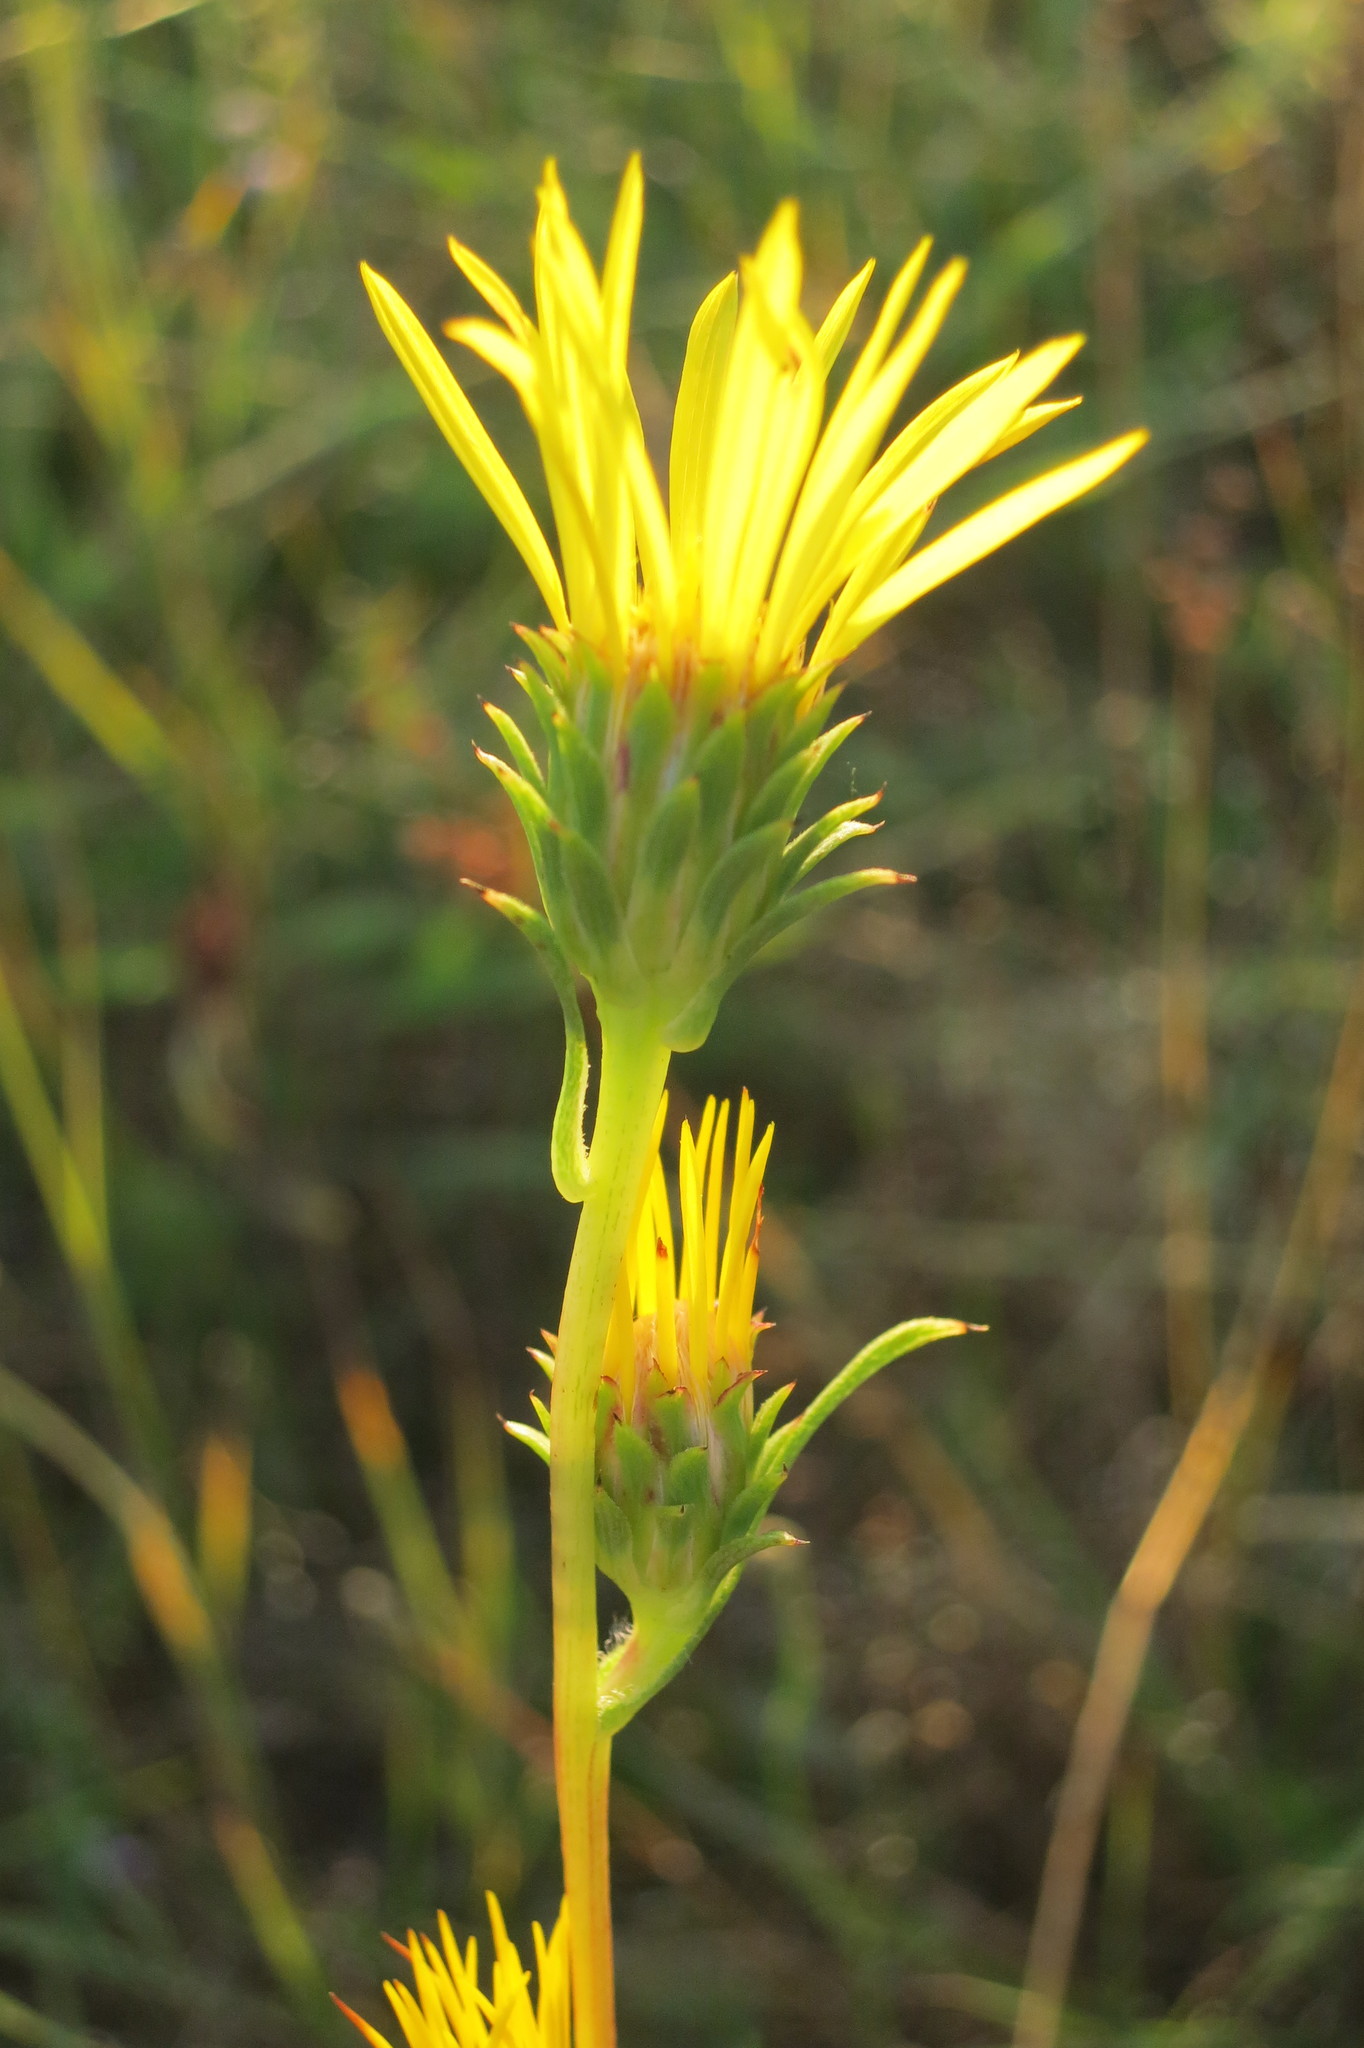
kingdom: Plantae
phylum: Tracheophyta
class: Magnoliopsida
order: Asterales
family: Asteraceae
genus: Pyrrocoma
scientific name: Pyrrocoma racemosa
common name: Clustered goldenweed
